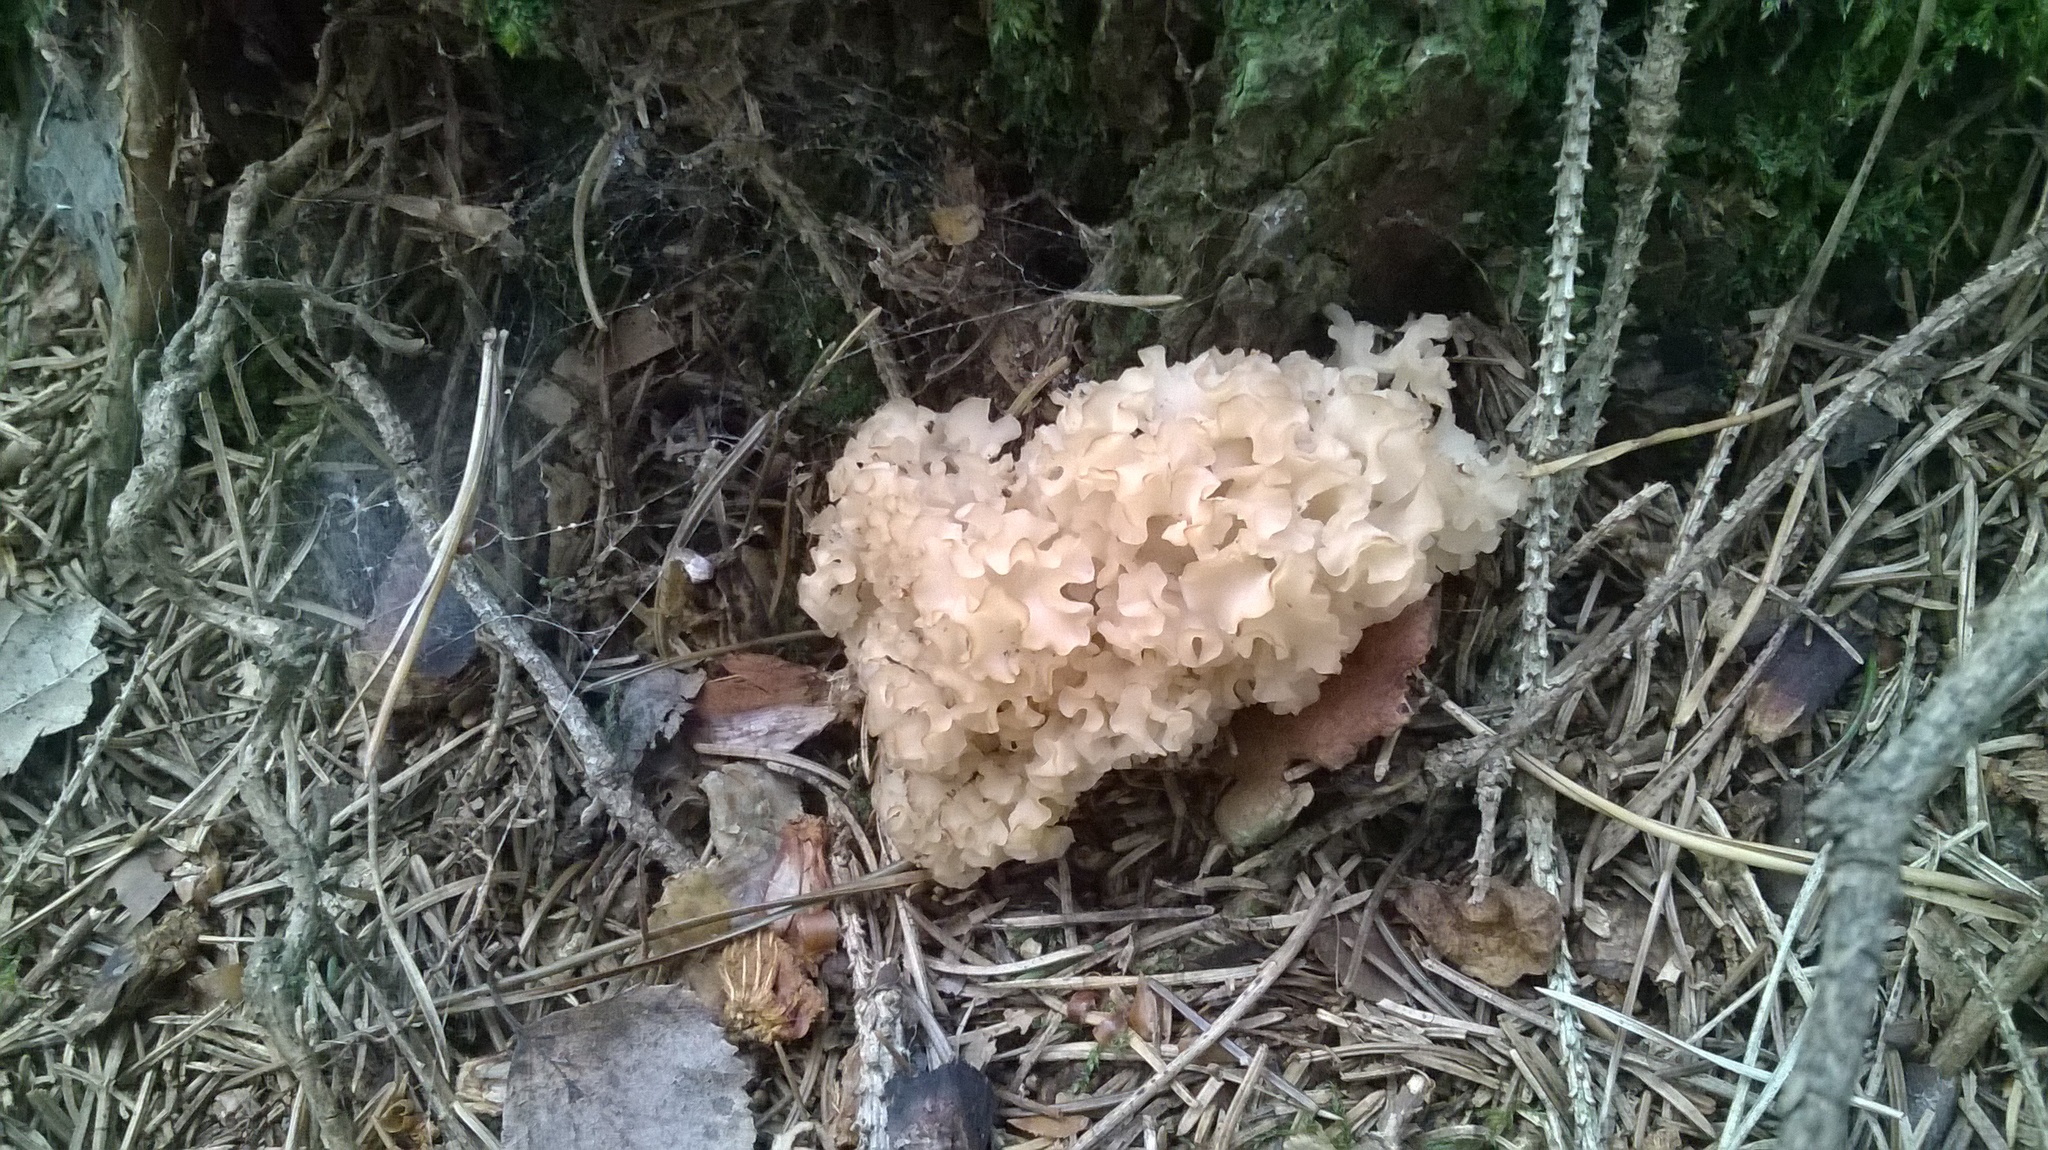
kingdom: Fungi
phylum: Basidiomycota
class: Agaricomycetes
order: Polyporales
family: Sparassidaceae
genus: Sparassis
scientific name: Sparassis crispa
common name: Brain fungus
